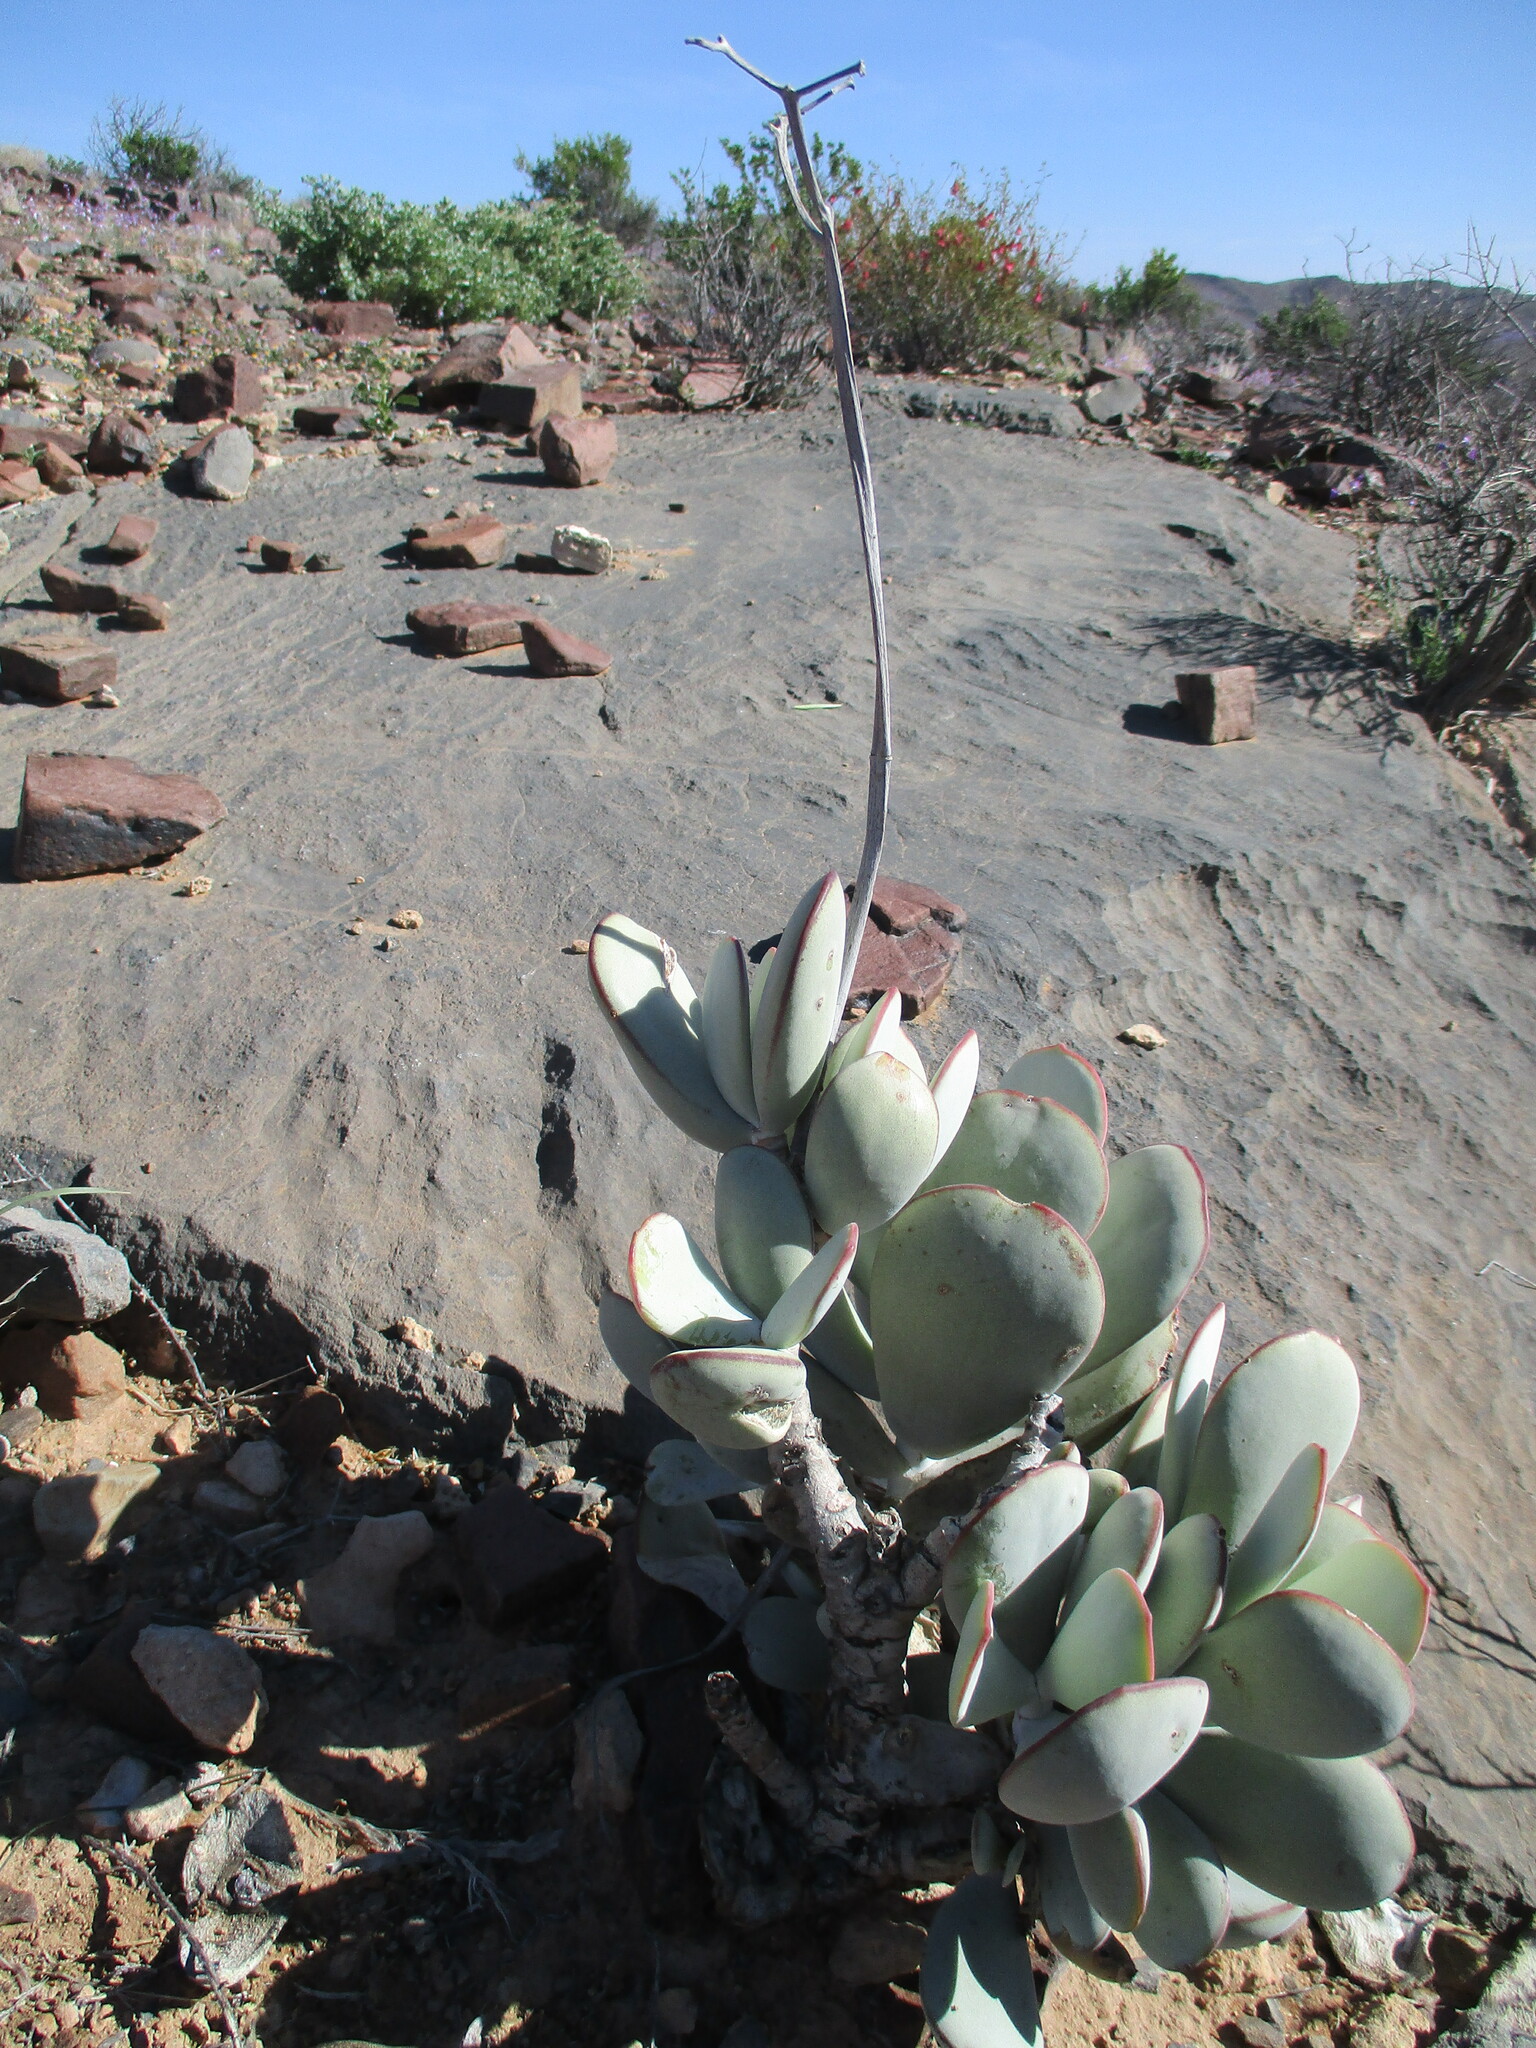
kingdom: Plantae
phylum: Tracheophyta
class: Magnoliopsida
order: Saxifragales
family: Crassulaceae
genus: Cotyledon
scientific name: Cotyledon orbiculata
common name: Pig's ear
